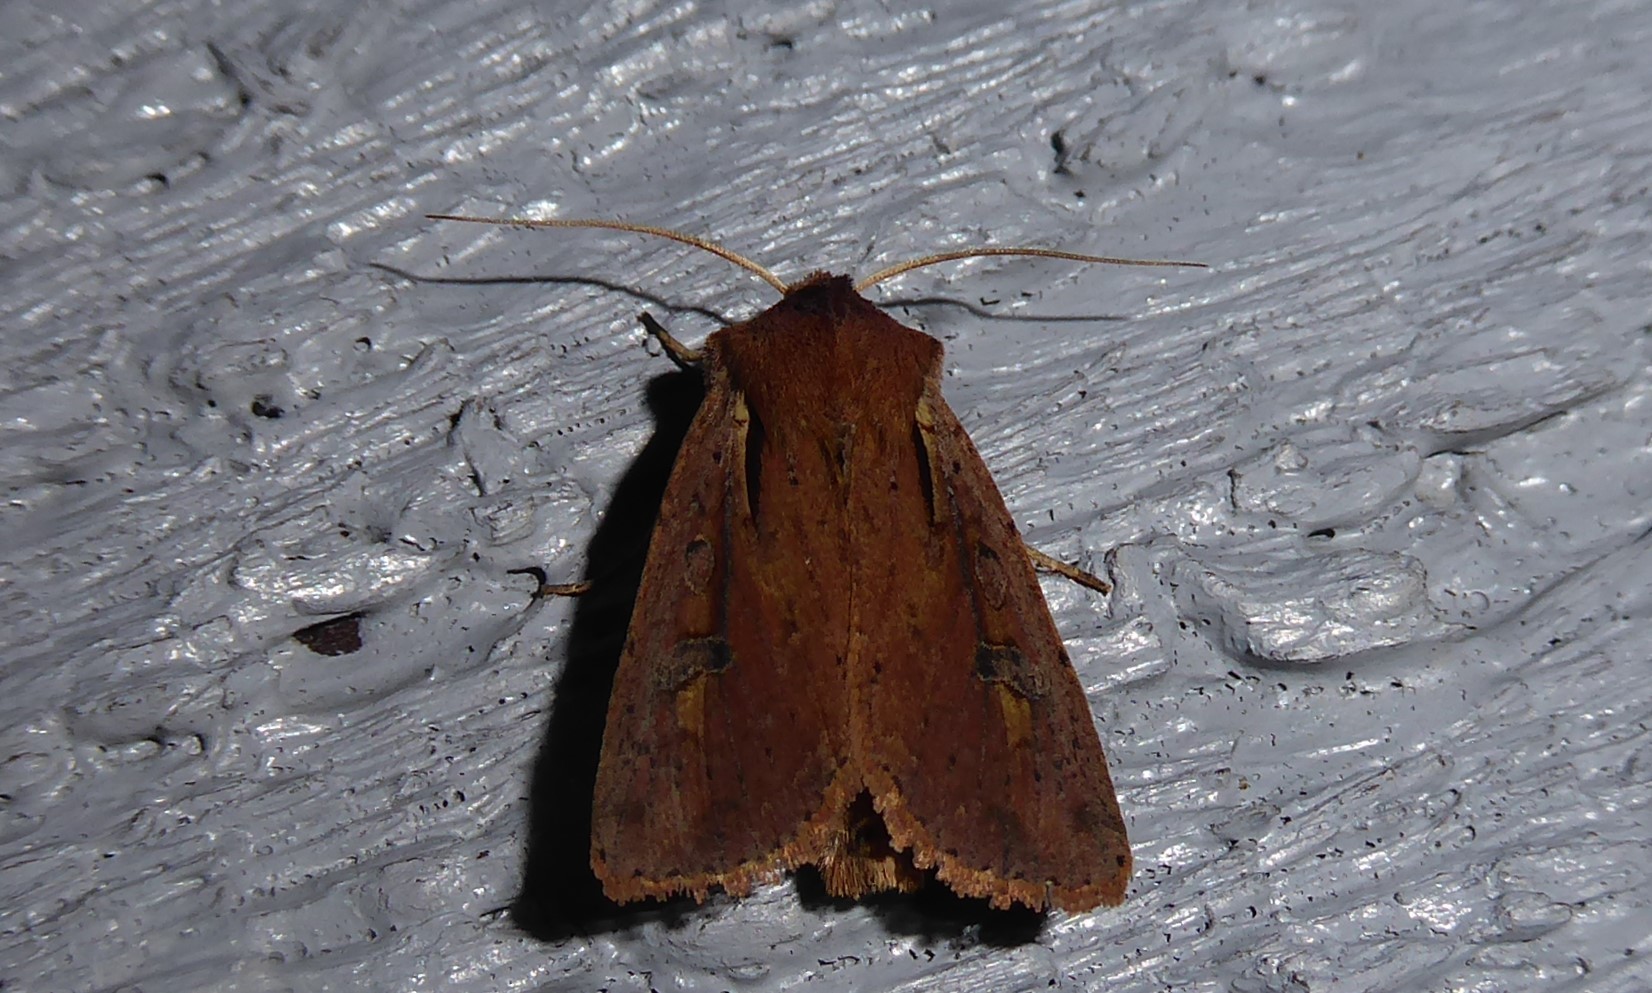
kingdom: Animalia
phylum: Arthropoda
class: Insecta
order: Lepidoptera
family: Noctuidae
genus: Ichneutica
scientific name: Ichneutica atristriga
